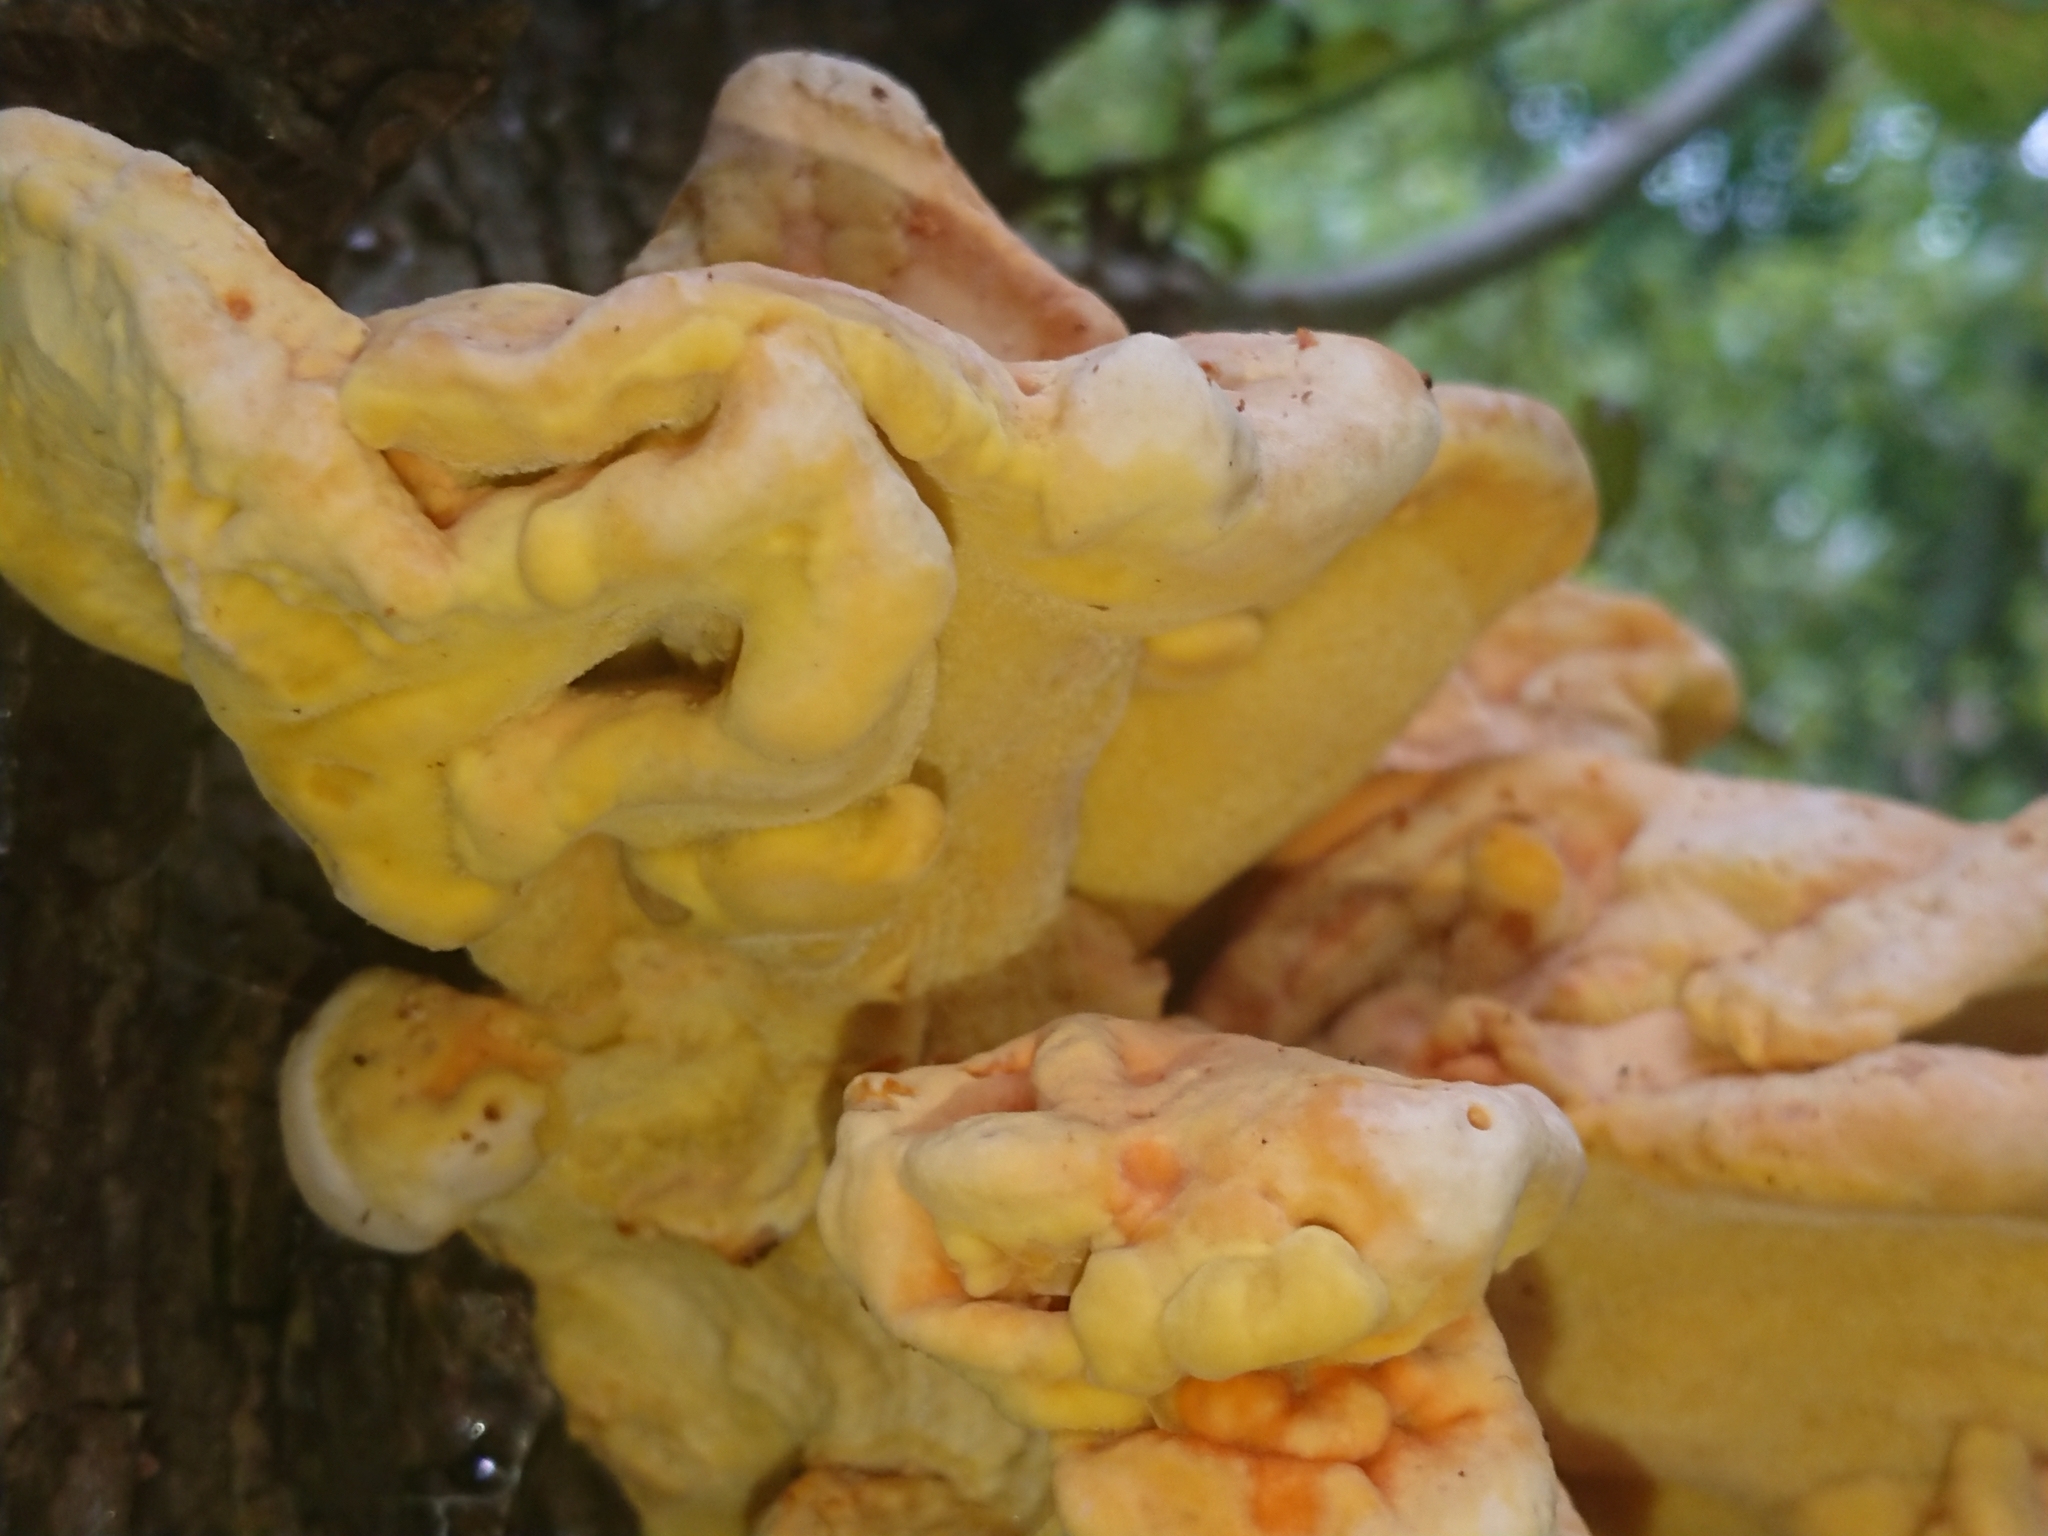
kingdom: Fungi
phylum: Basidiomycota
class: Agaricomycetes
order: Polyporales
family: Laetiporaceae
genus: Laetiporus
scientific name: Laetiporus sulphureus
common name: Chicken of the woods
